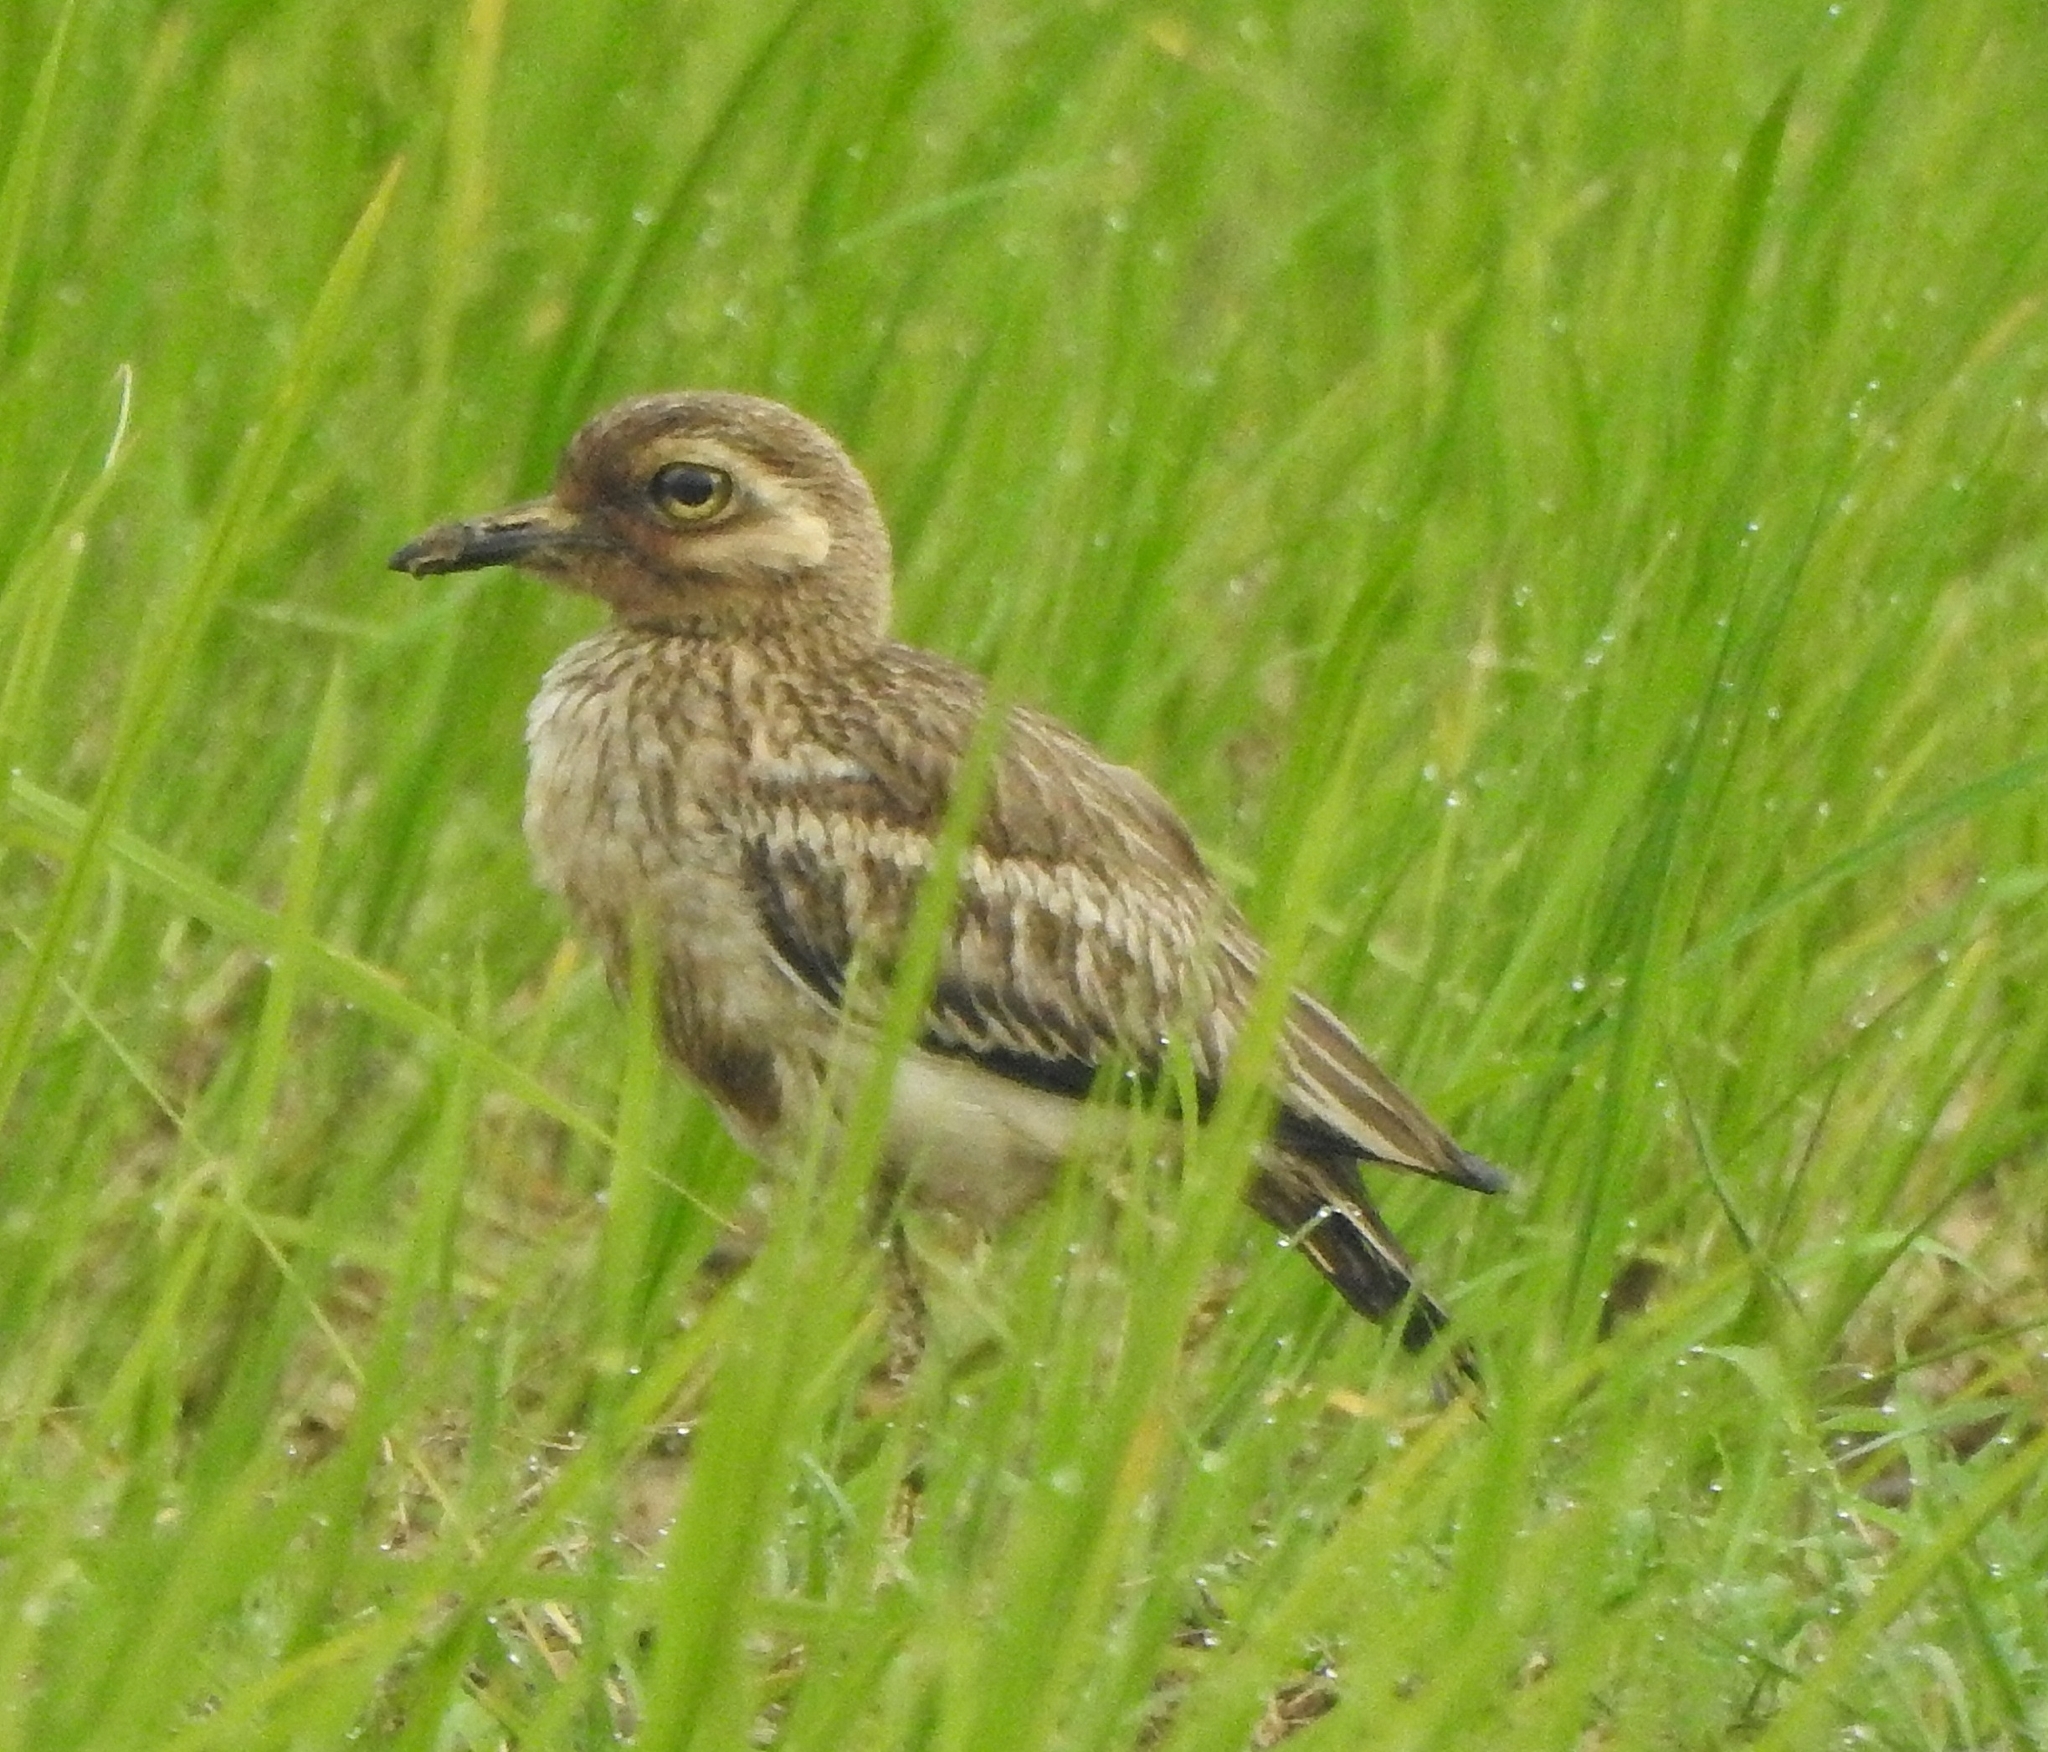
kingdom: Animalia
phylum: Chordata
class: Aves
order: Charadriiformes
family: Burhinidae
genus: Burhinus
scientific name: Burhinus indicus
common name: Indian thick-knee
